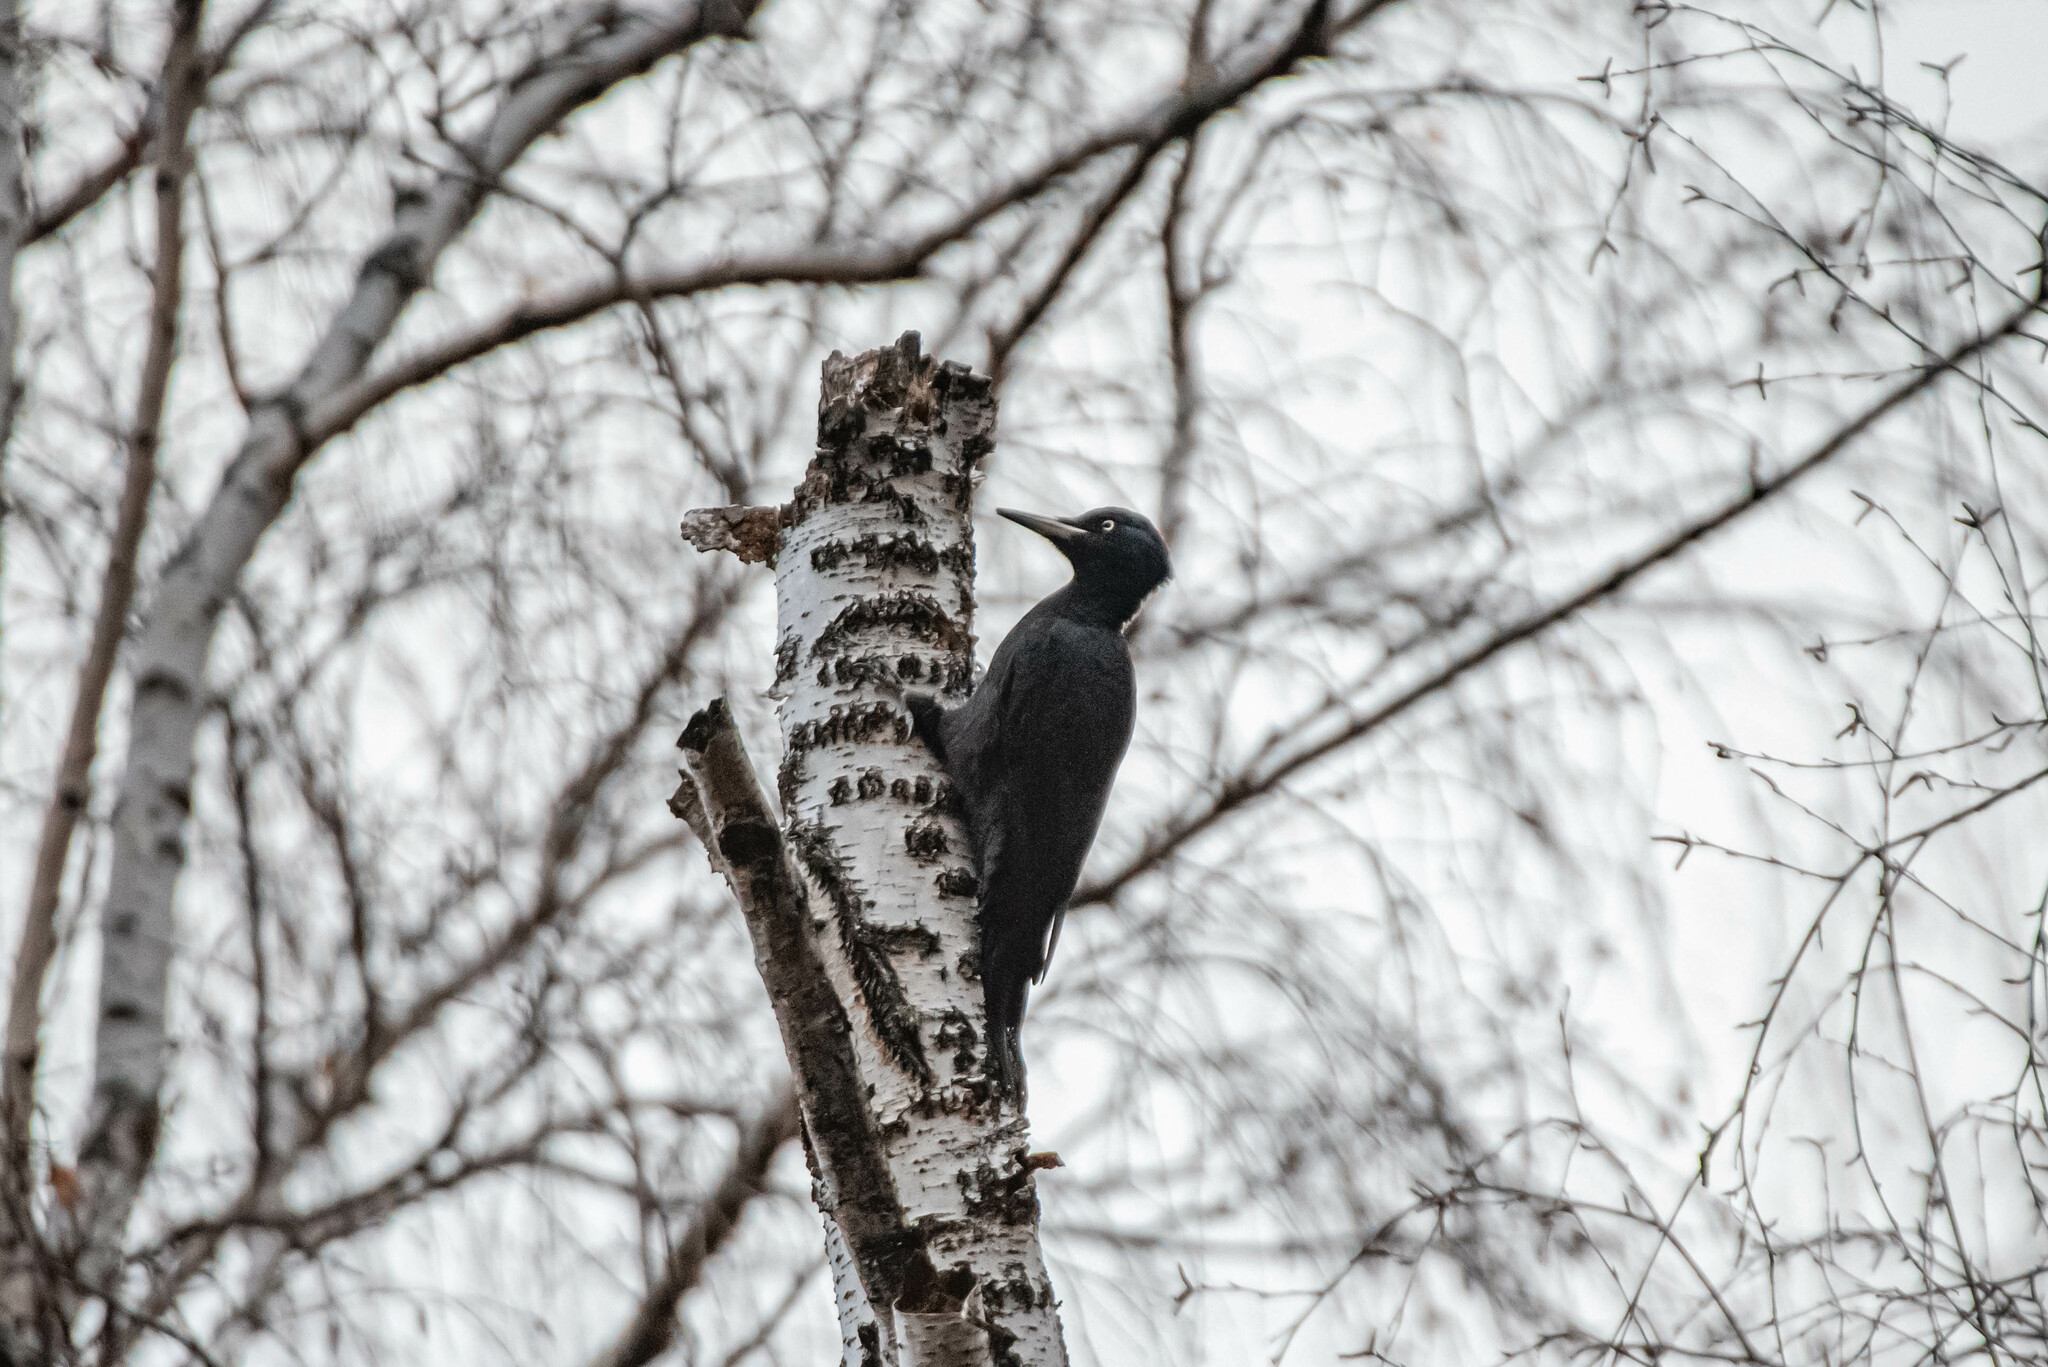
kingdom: Animalia
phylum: Chordata
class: Aves
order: Piciformes
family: Picidae
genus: Dryocopus
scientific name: Dryocopus martius
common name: Black woodpecker
